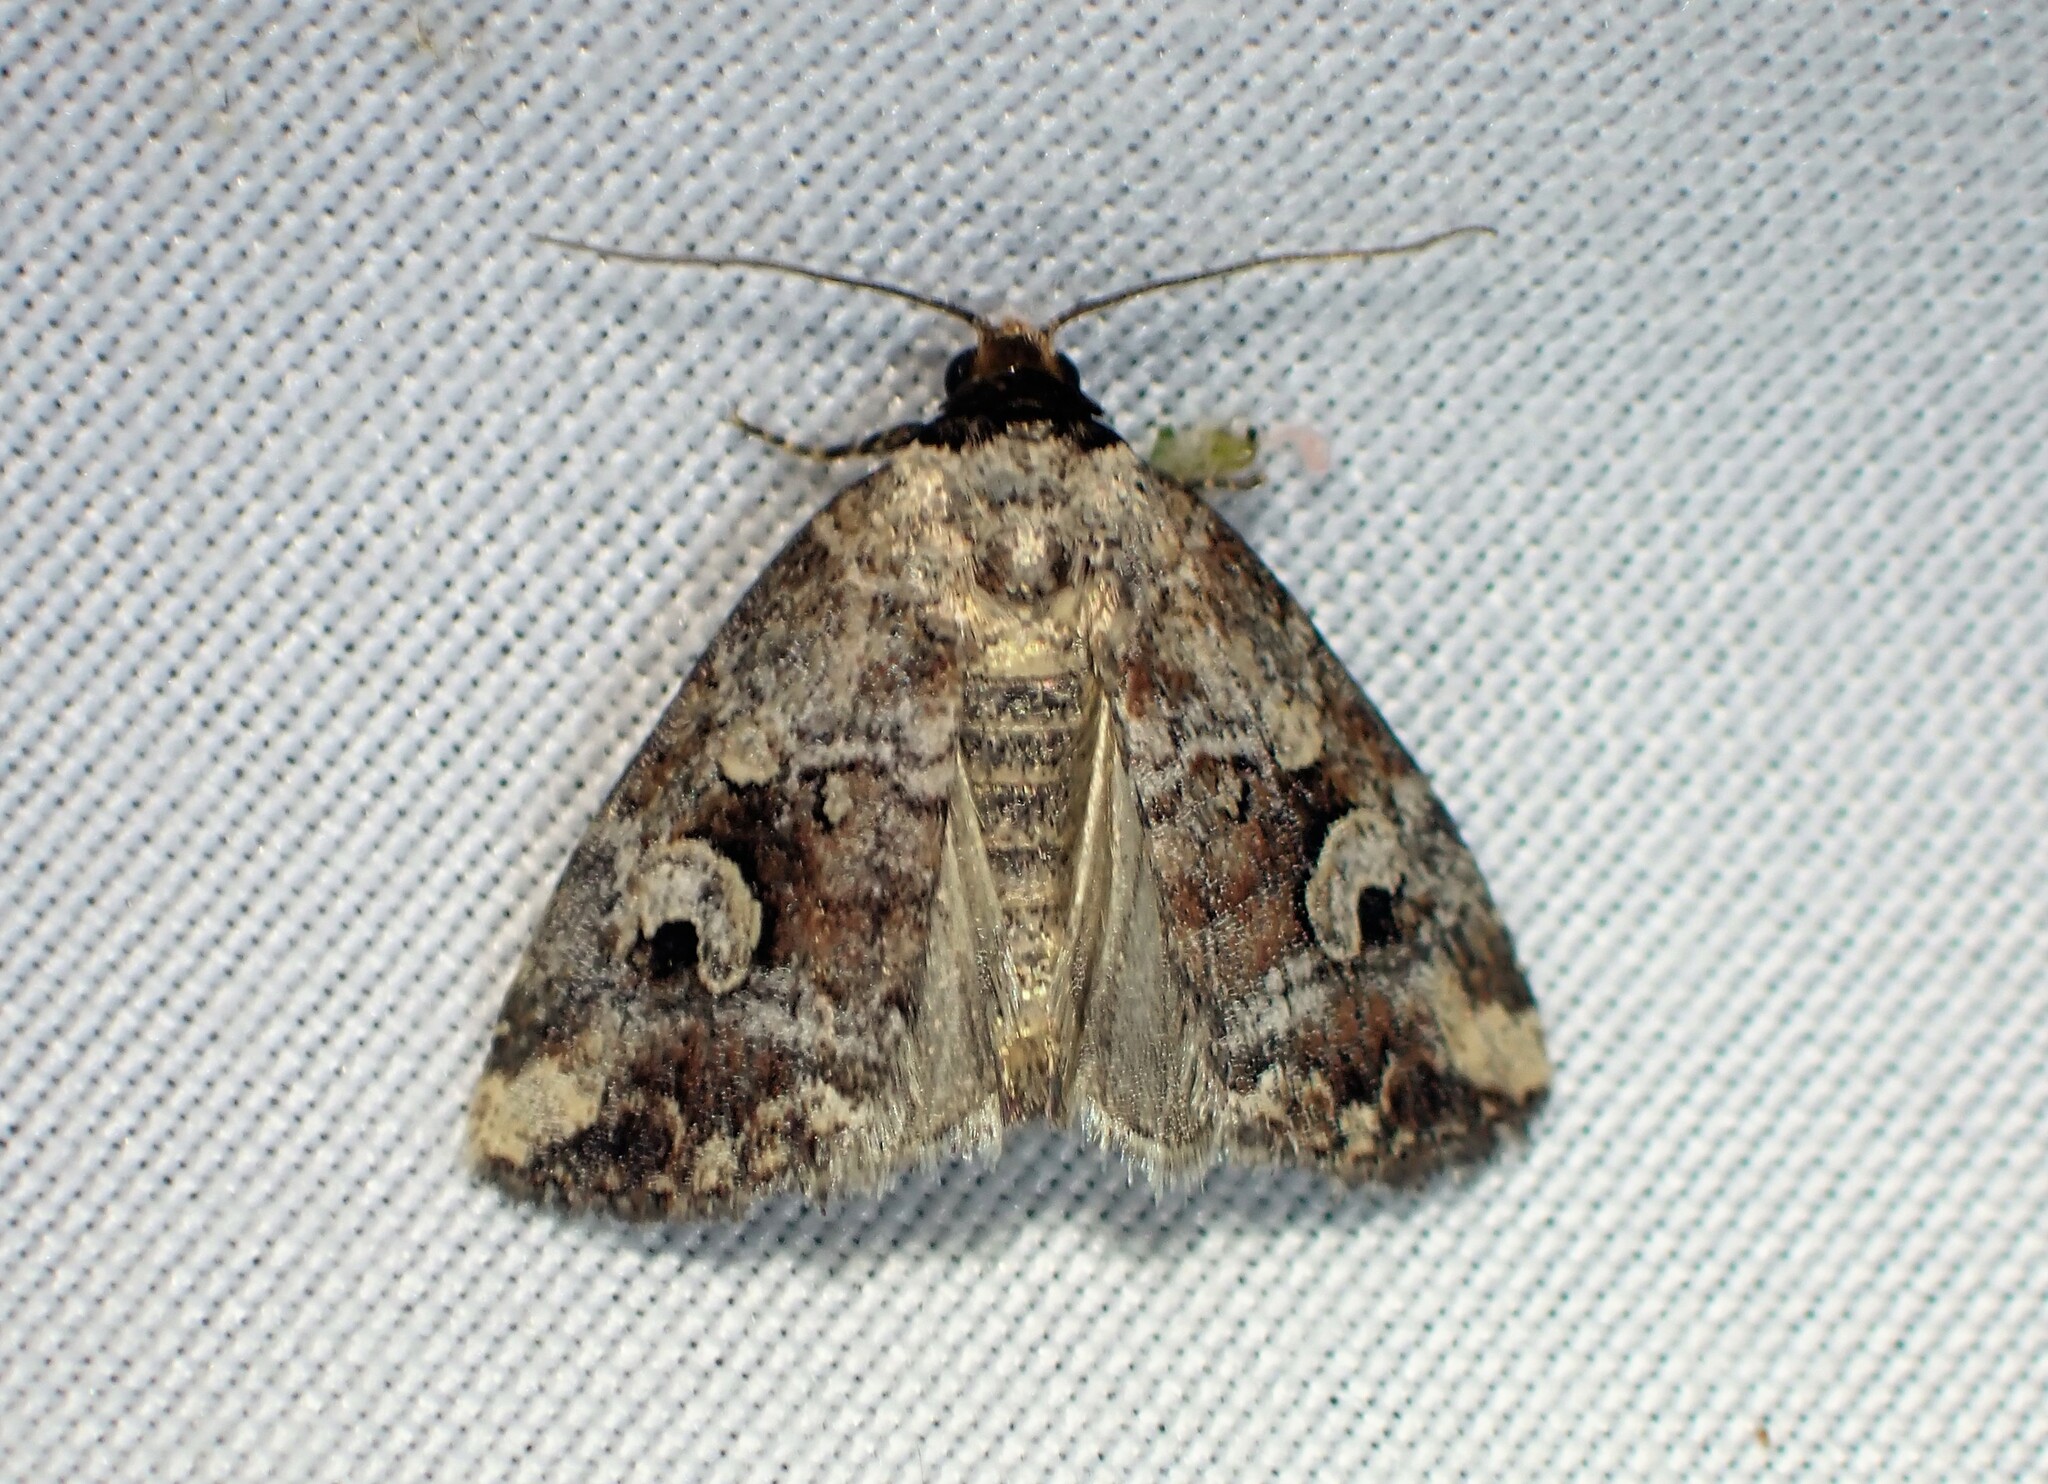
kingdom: Animalia
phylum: Arthropoda
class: Insecta
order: Lepidoptera
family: Noctuidae
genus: Elaphria
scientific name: Elaphria alapallida
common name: Pale-winged midget
